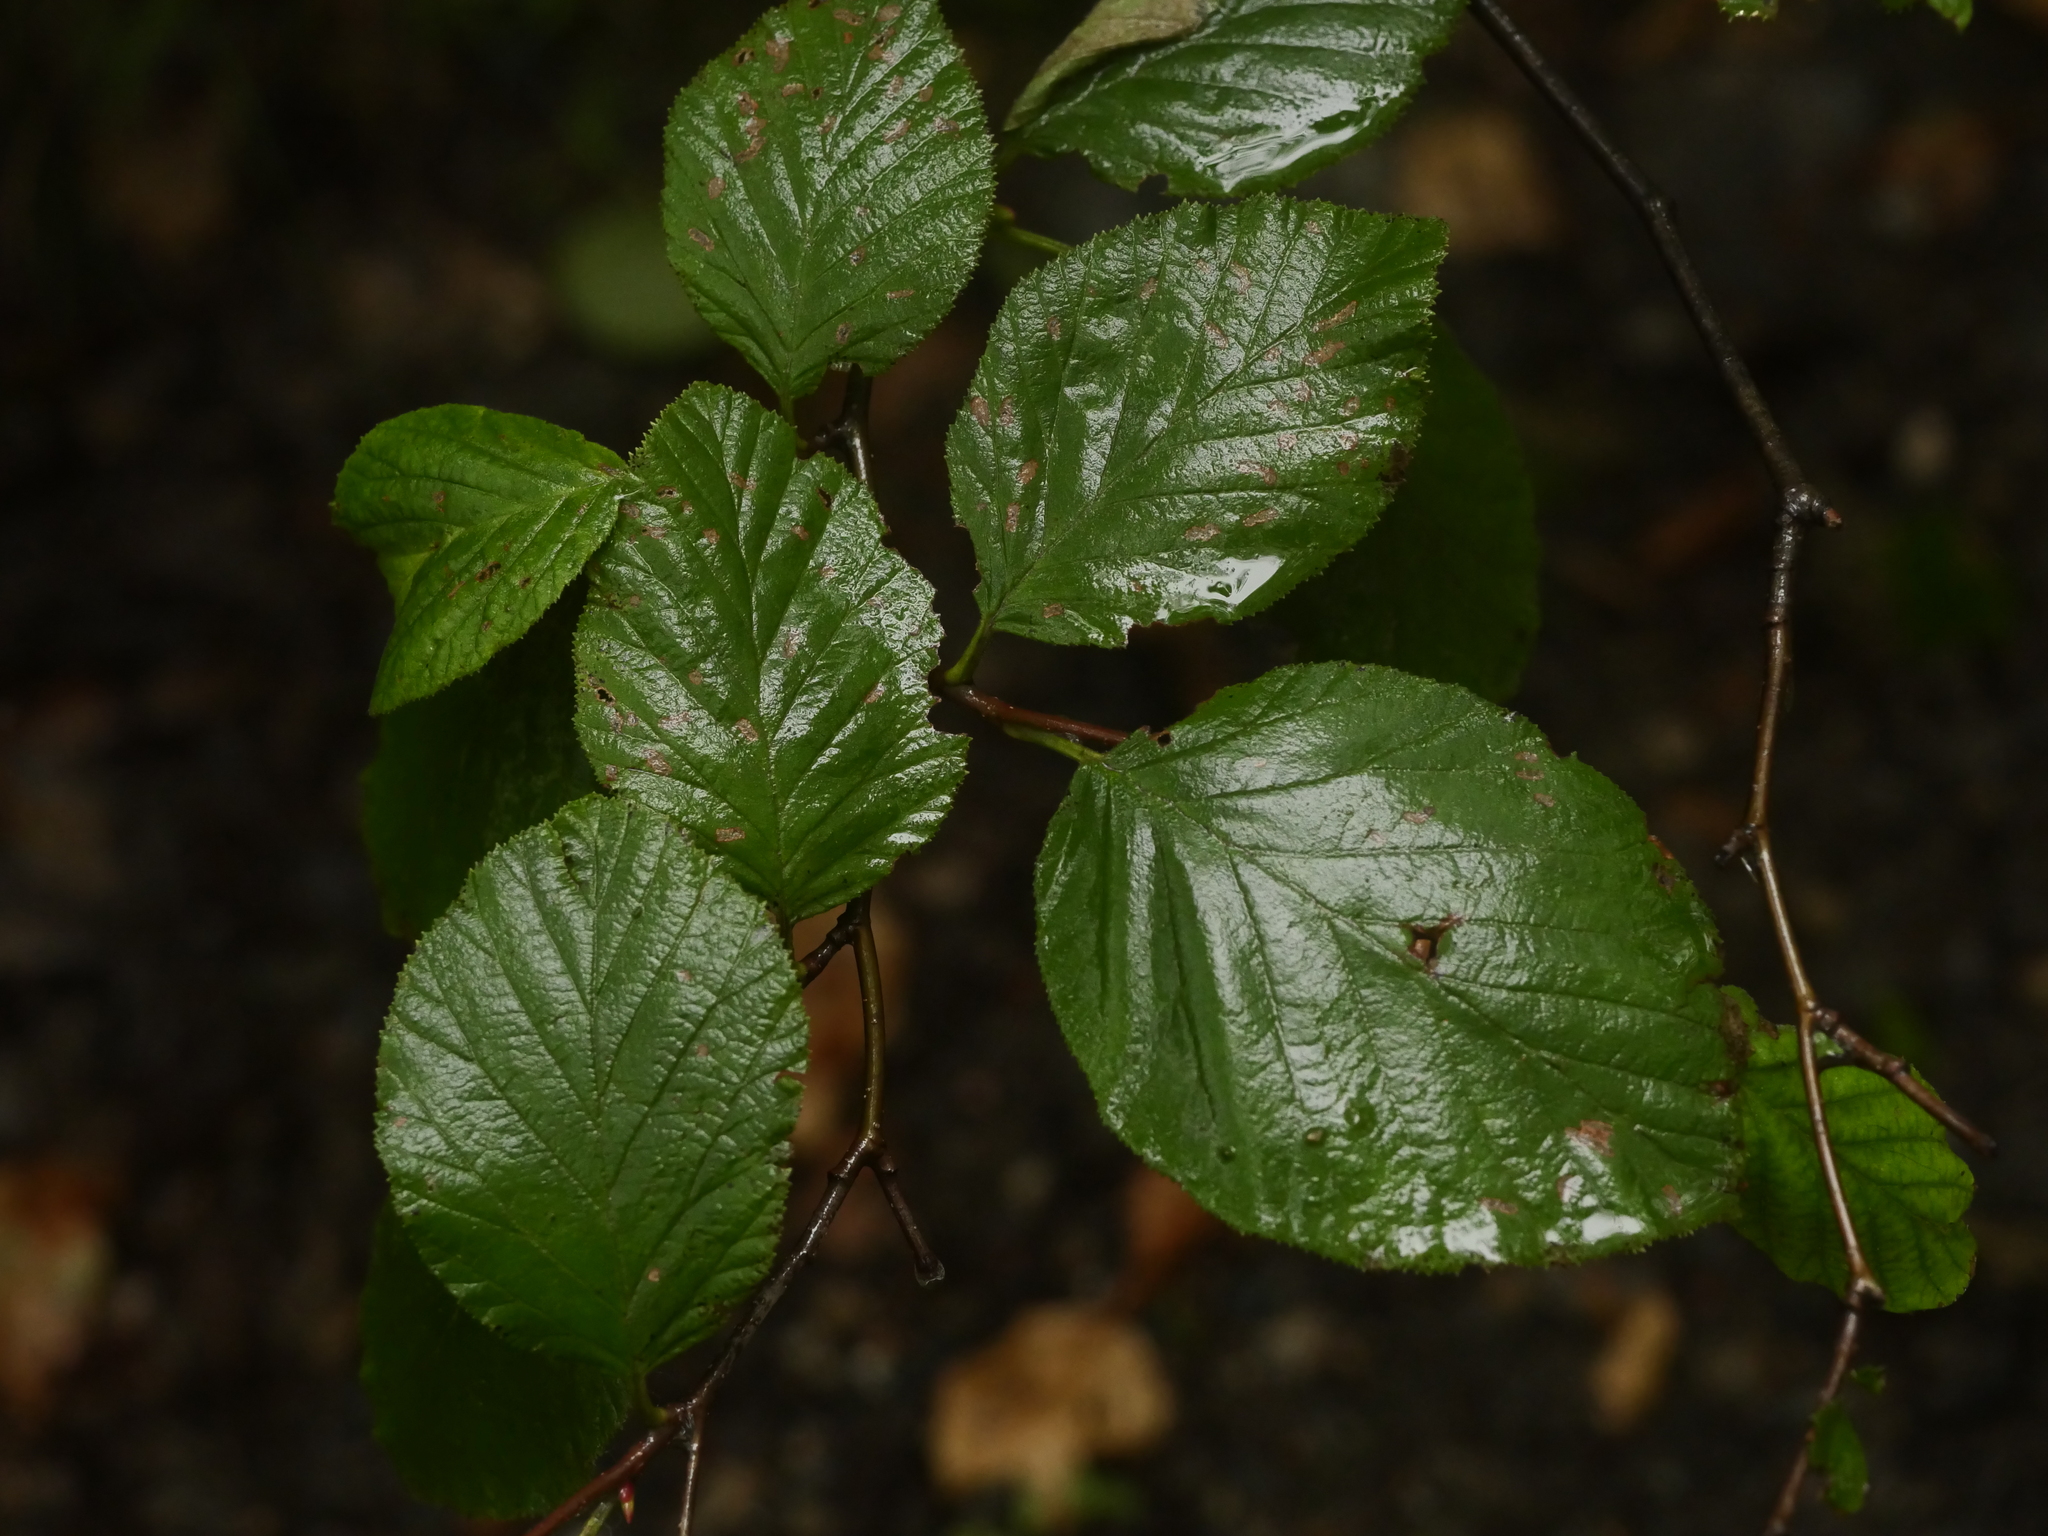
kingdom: Plantae
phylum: Tracheophyta
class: Magnoliopsida
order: Fagales
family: Betulaceae
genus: Alnus
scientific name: Alnus alnobetula
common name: Green alder
